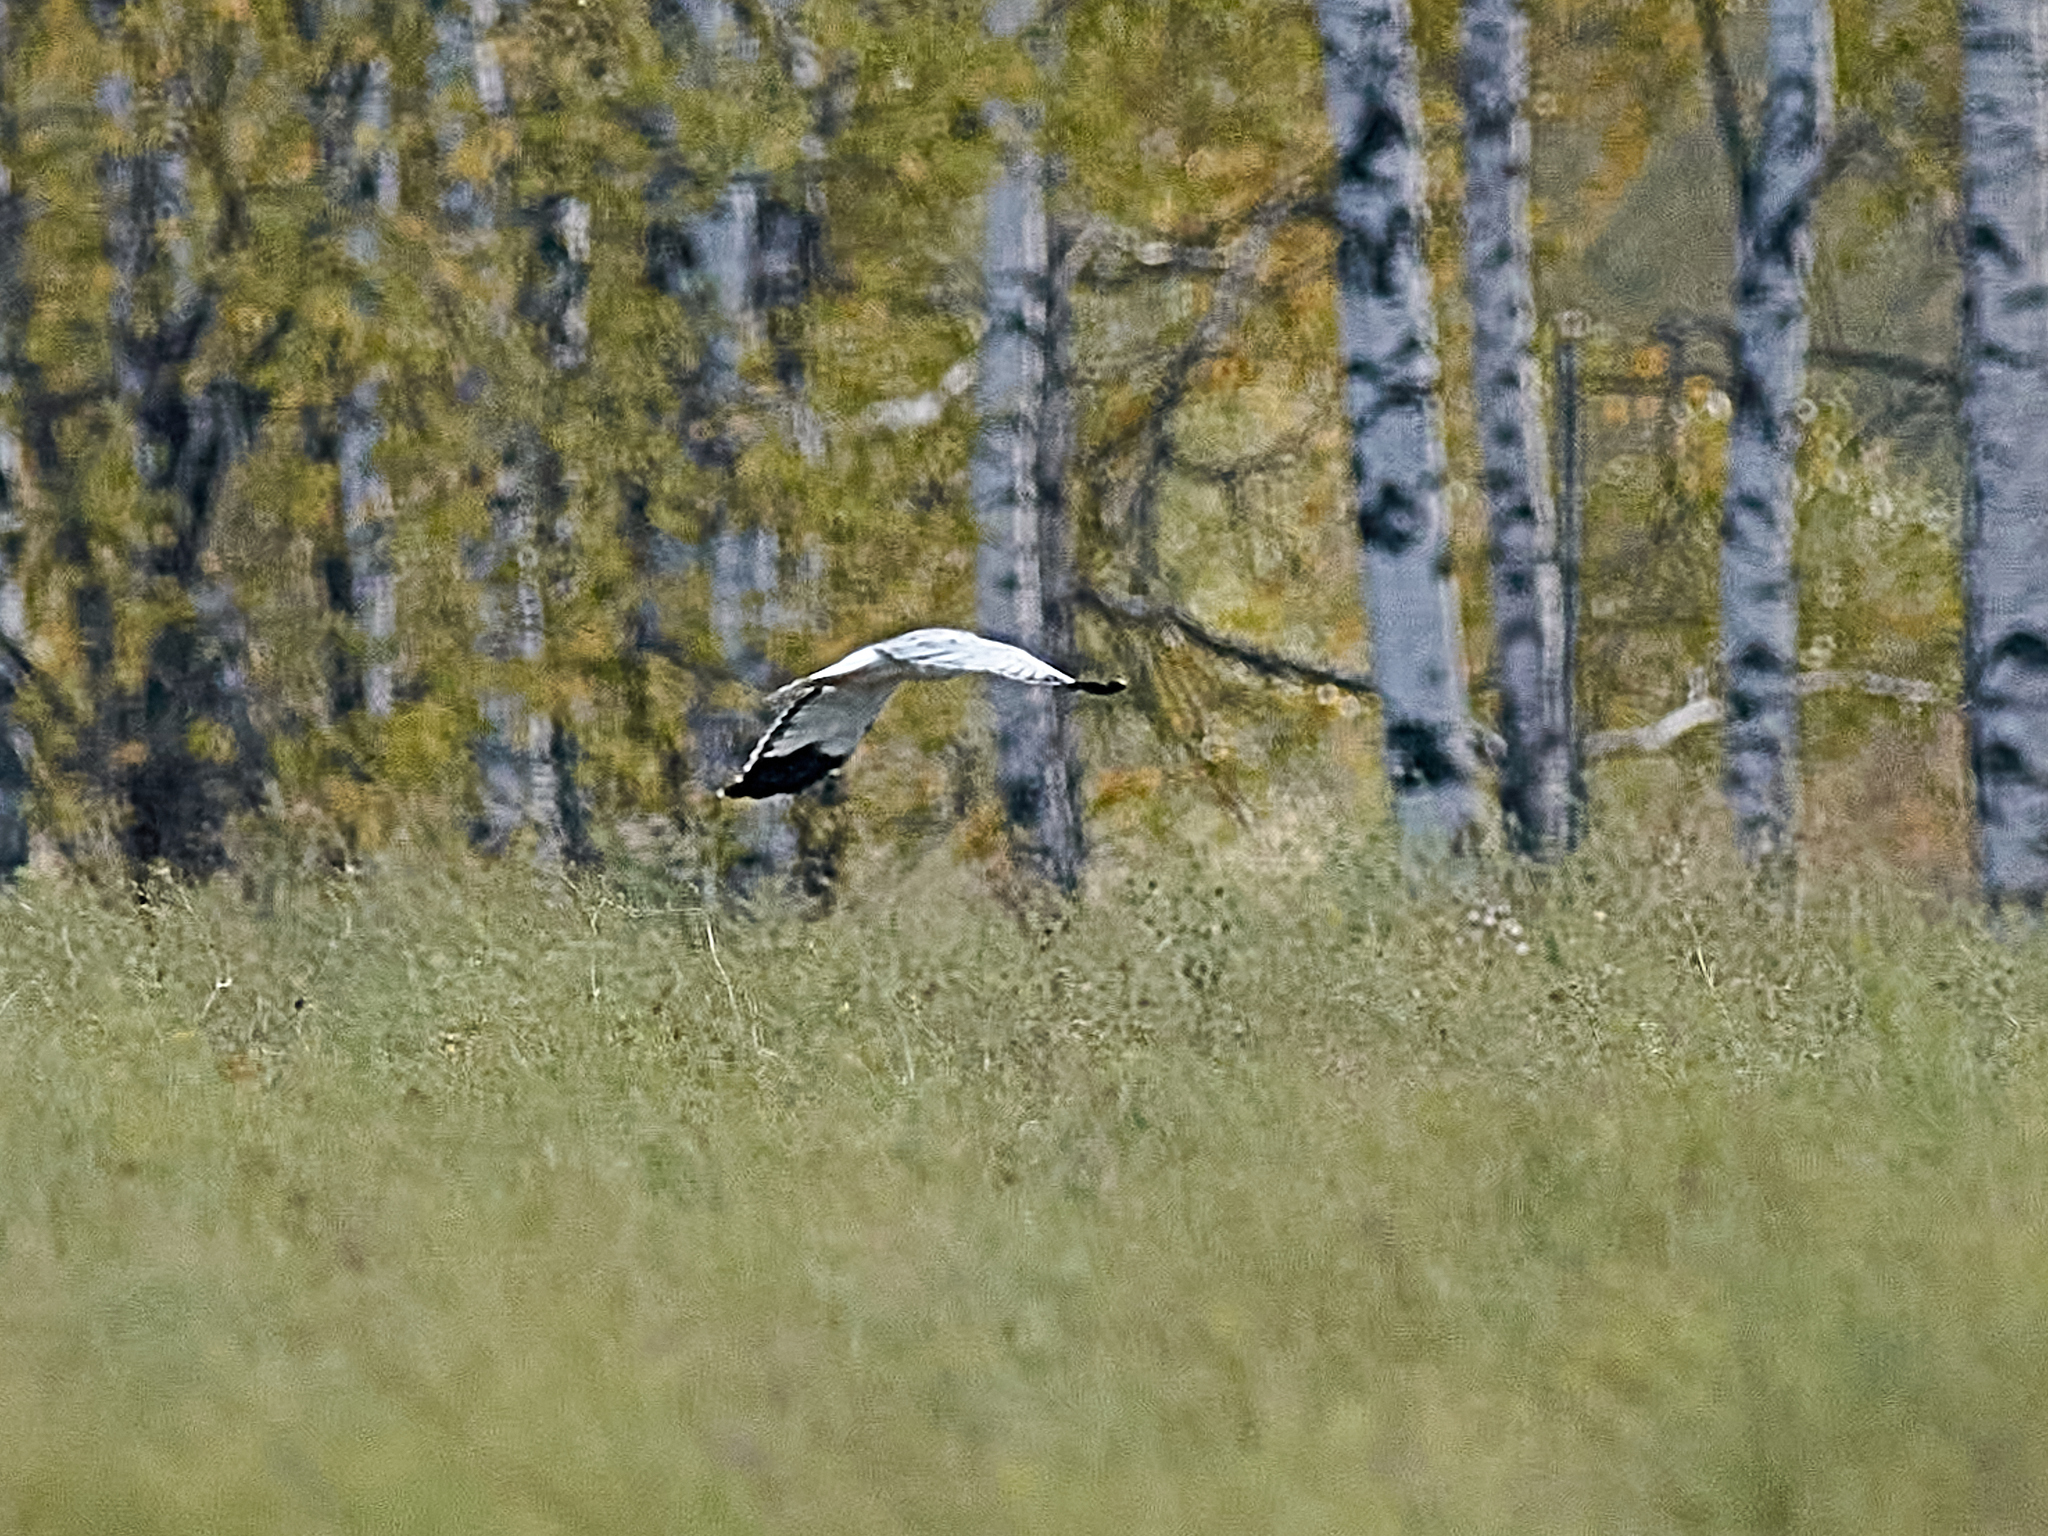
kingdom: Animalia
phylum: Chordata
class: Aves
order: Accipitriformes
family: Accipitridae
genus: Circus
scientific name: Circus cyaneus
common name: Hen harrier
